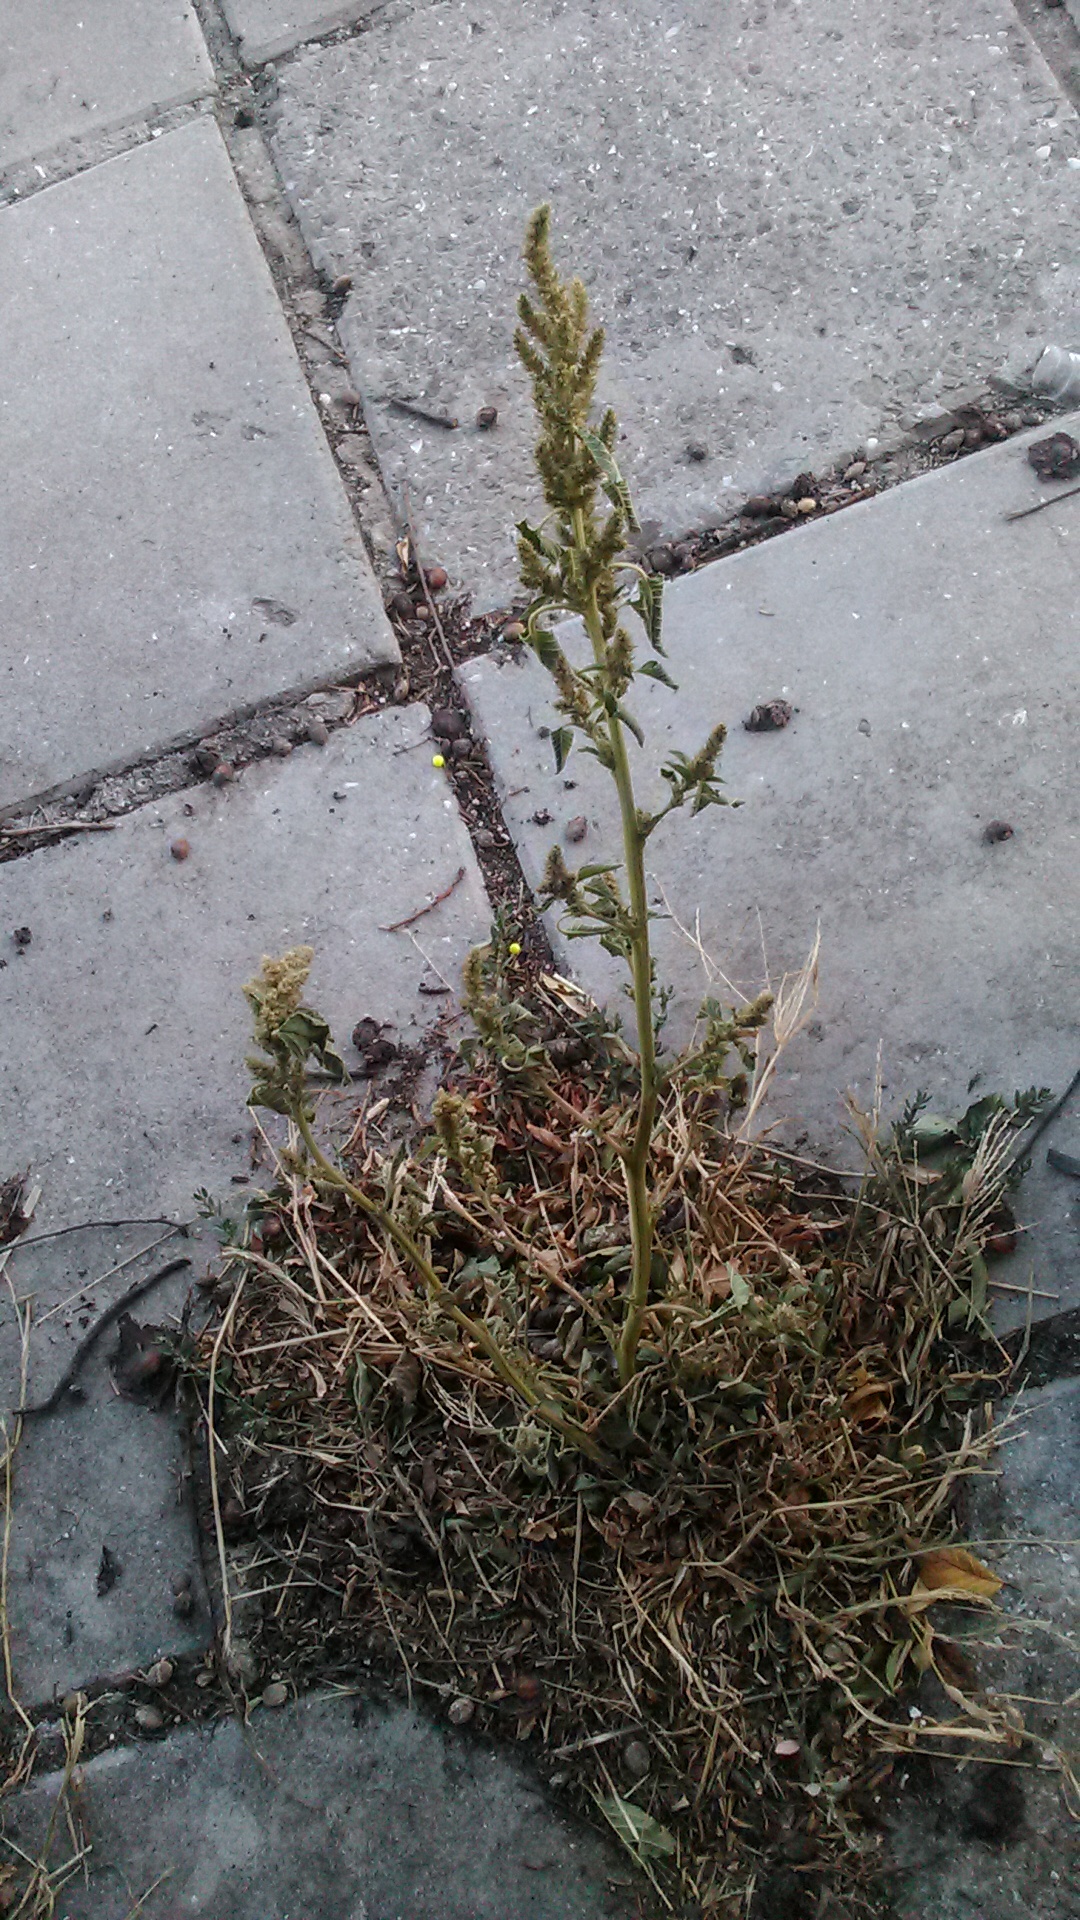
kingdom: Plantae
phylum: Tracheophyta
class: Magnoliopsida
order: Caryophyllales
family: Amaranthaceae
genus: Amaranthus
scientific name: Amaranthus retroflexus
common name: Redroot amaranth
